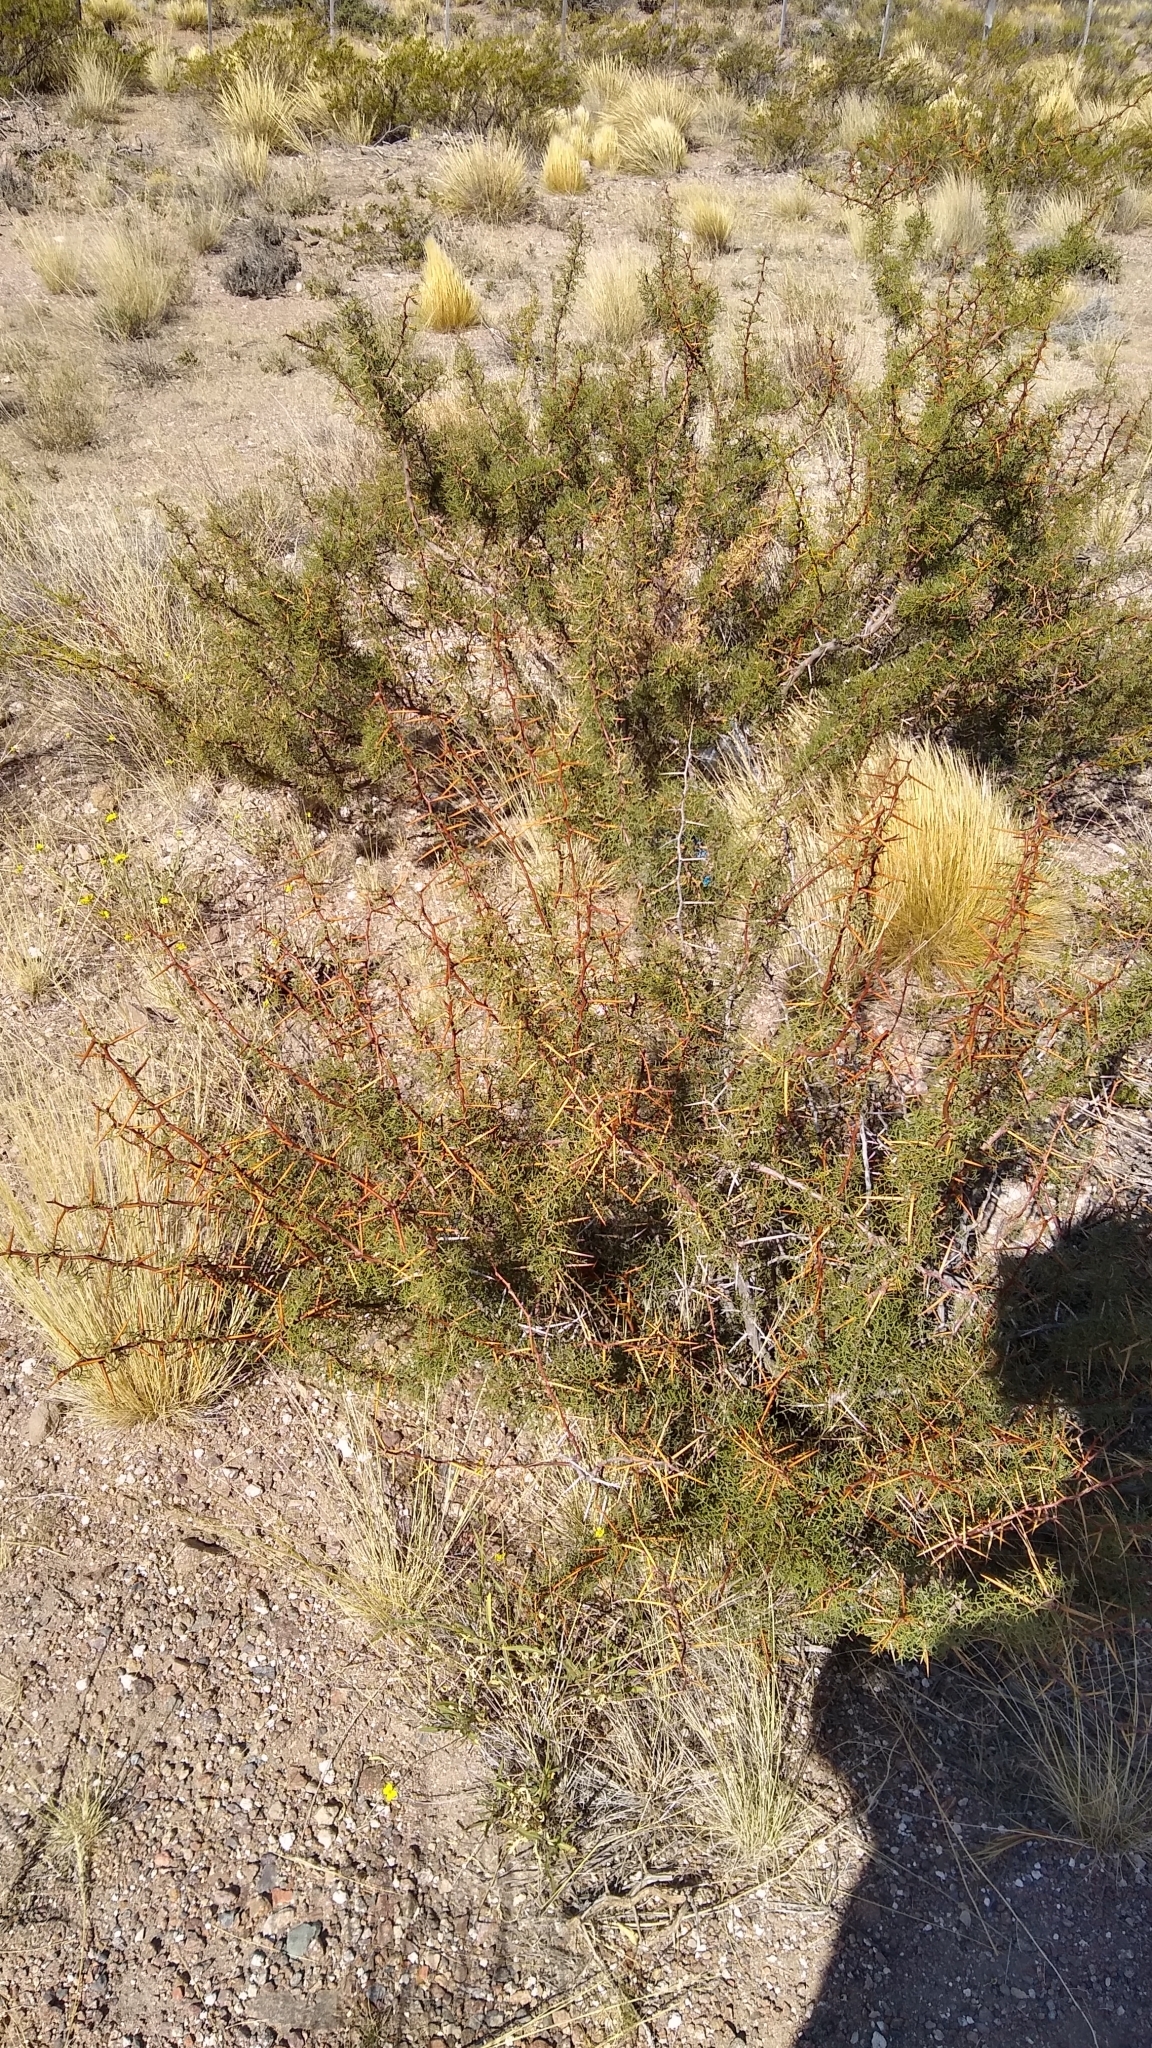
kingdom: Plantae
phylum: Tracheophyta
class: Magnoliopsida
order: Fabales
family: Fabaceae
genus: Prosopis
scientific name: Prosopis denudans
